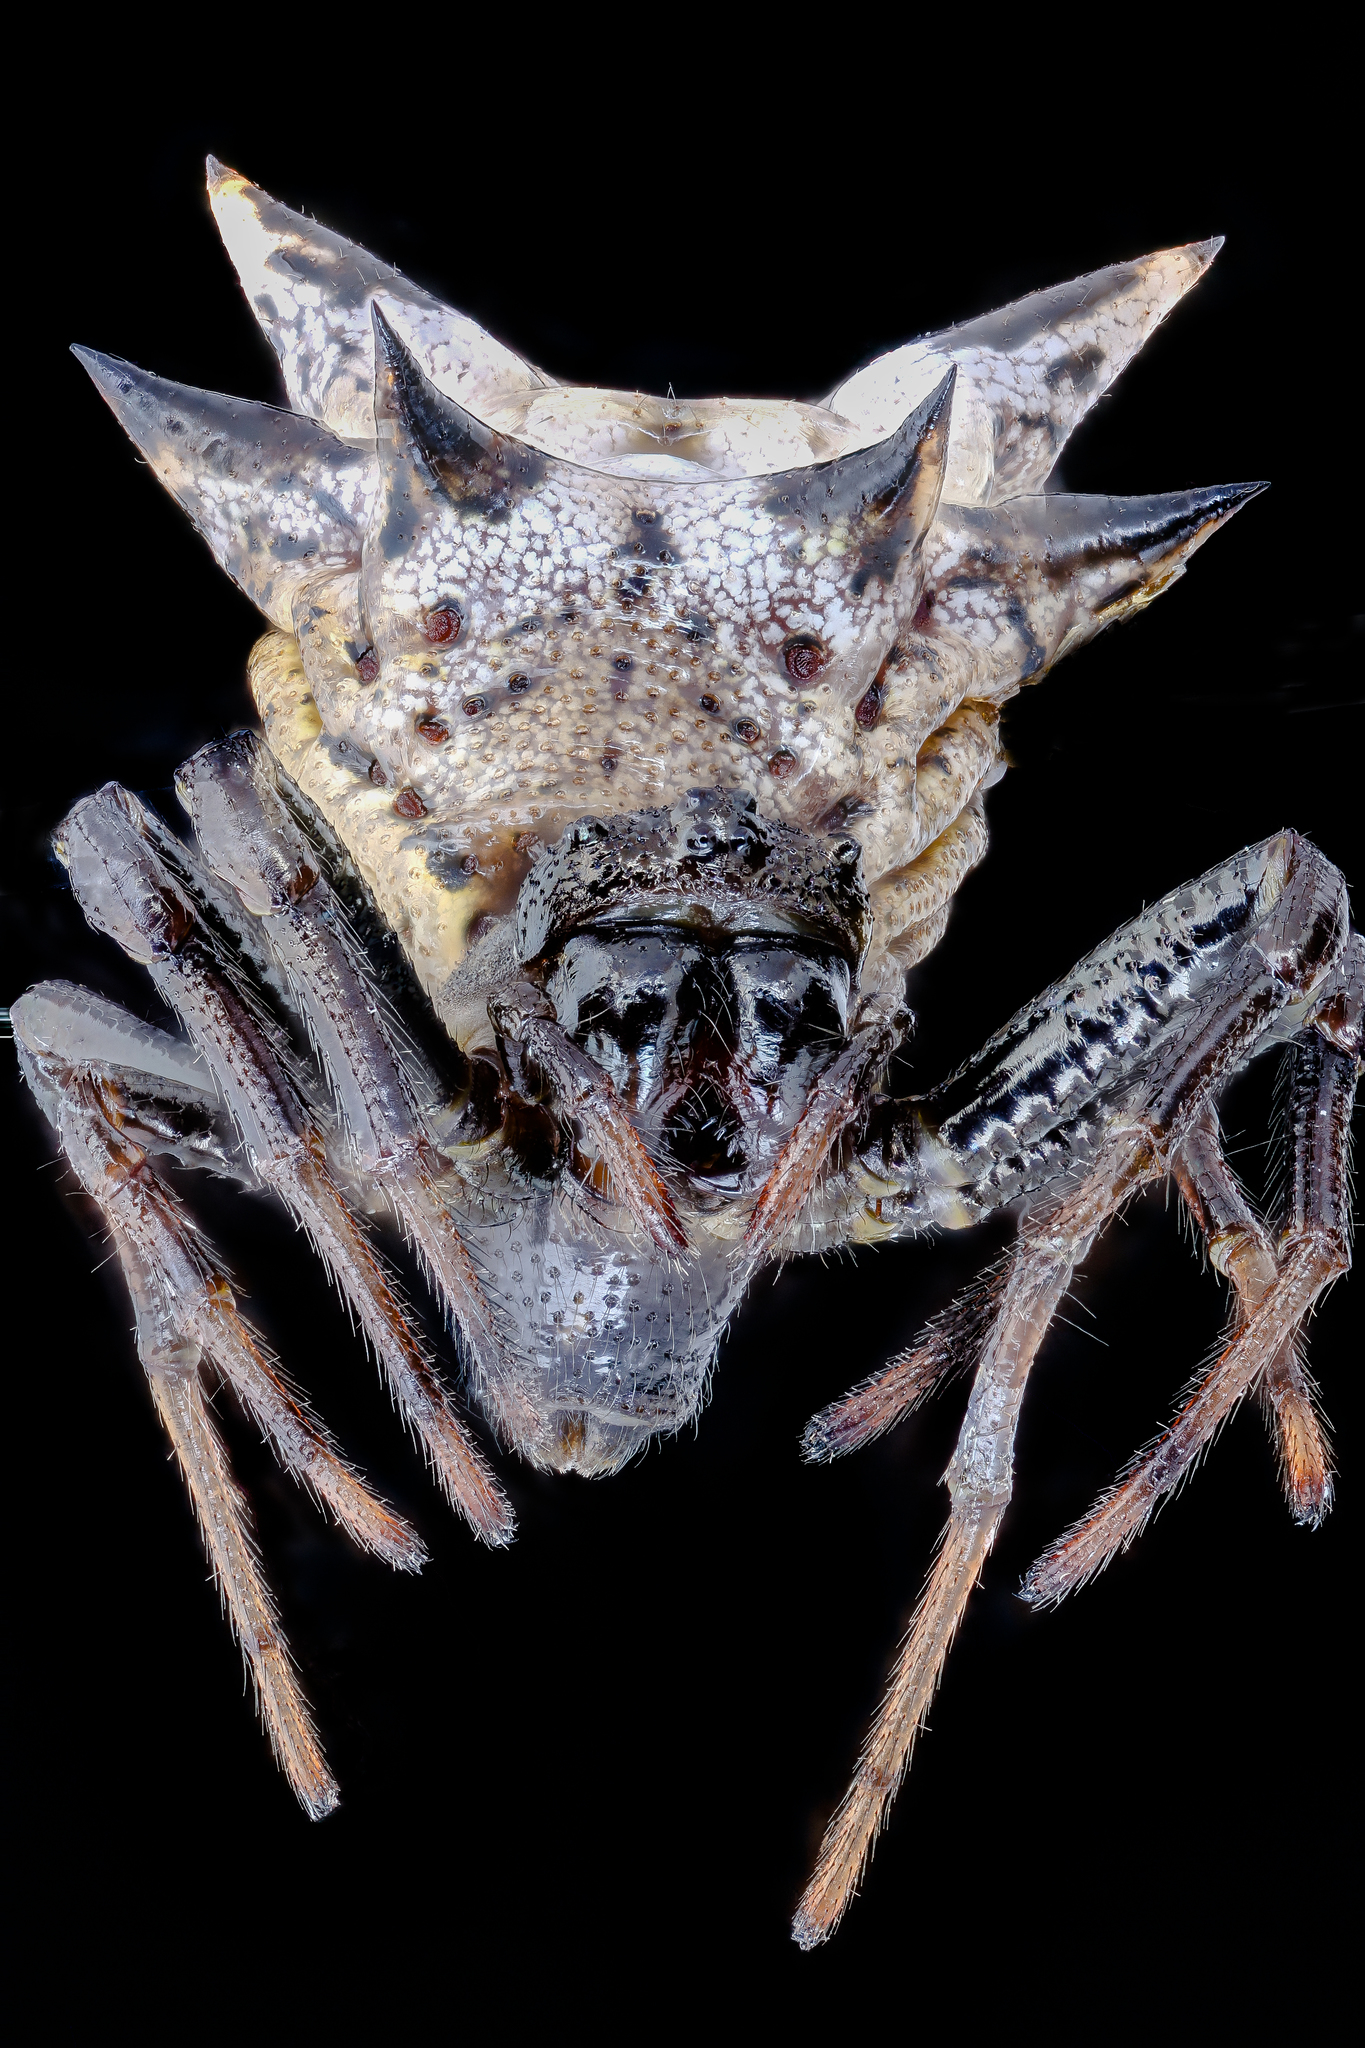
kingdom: Animalia
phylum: Arthropoda
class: Arachnida
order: Araneae
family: Araneidae
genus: Micrathena
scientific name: Micrathena gracilis
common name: Orb weavers
